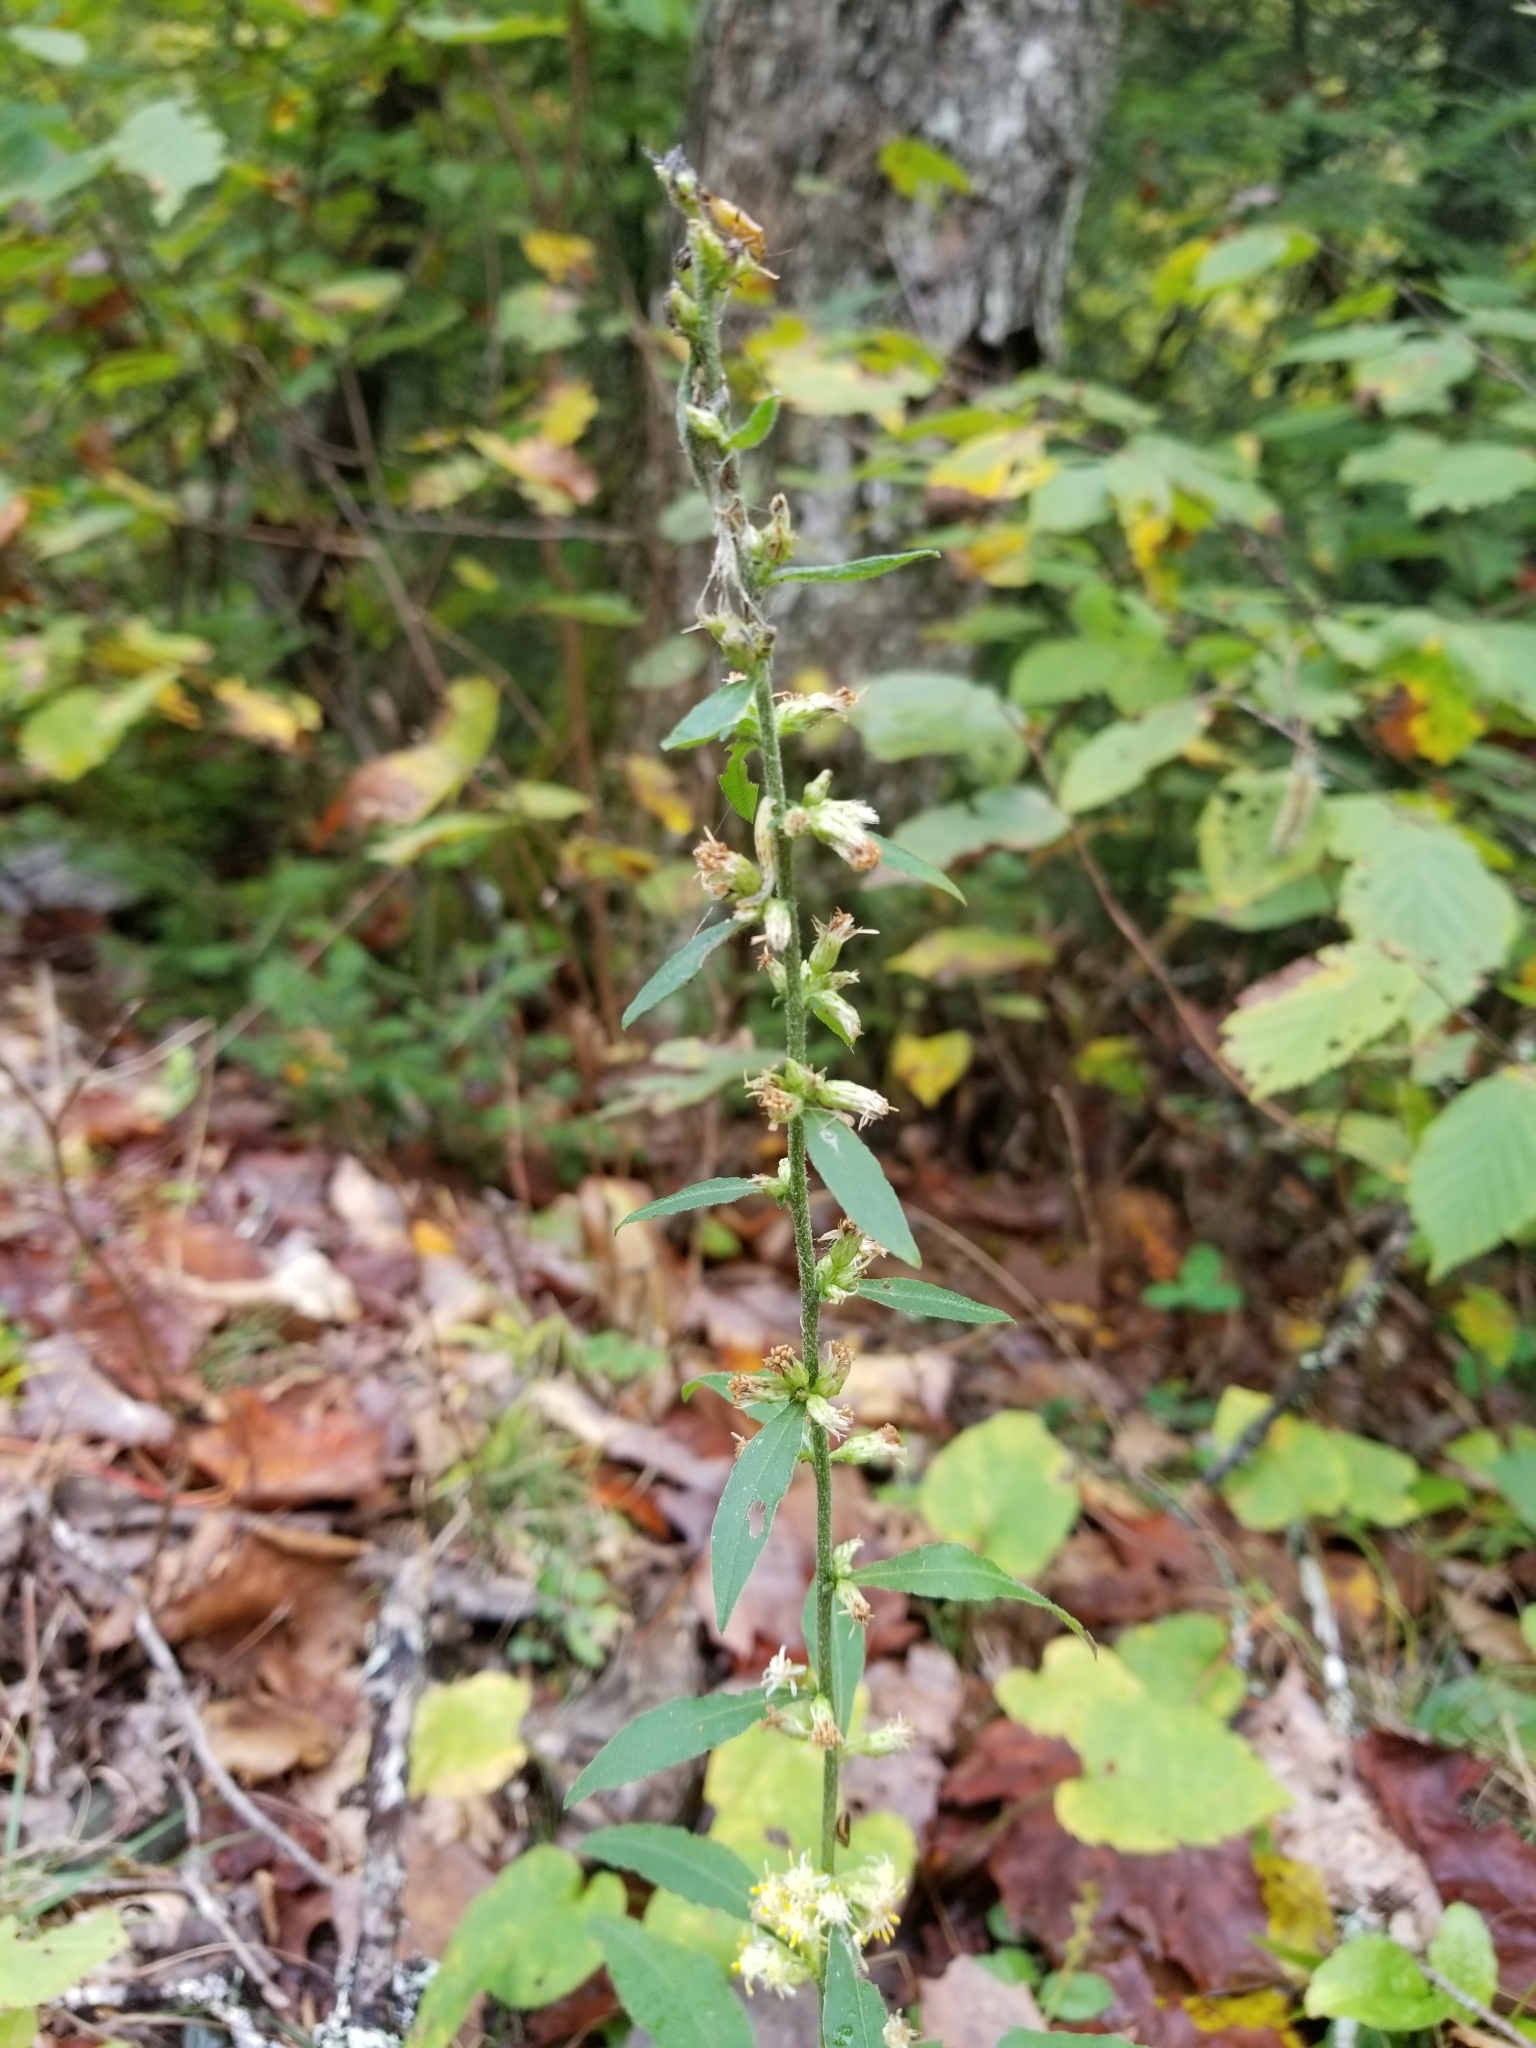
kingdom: Plantae
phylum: Tracheophyta
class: Magnoliopsida
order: Asterales
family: Asteraceae
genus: Solidago
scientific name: Solidago bicolor
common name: Silverrod
